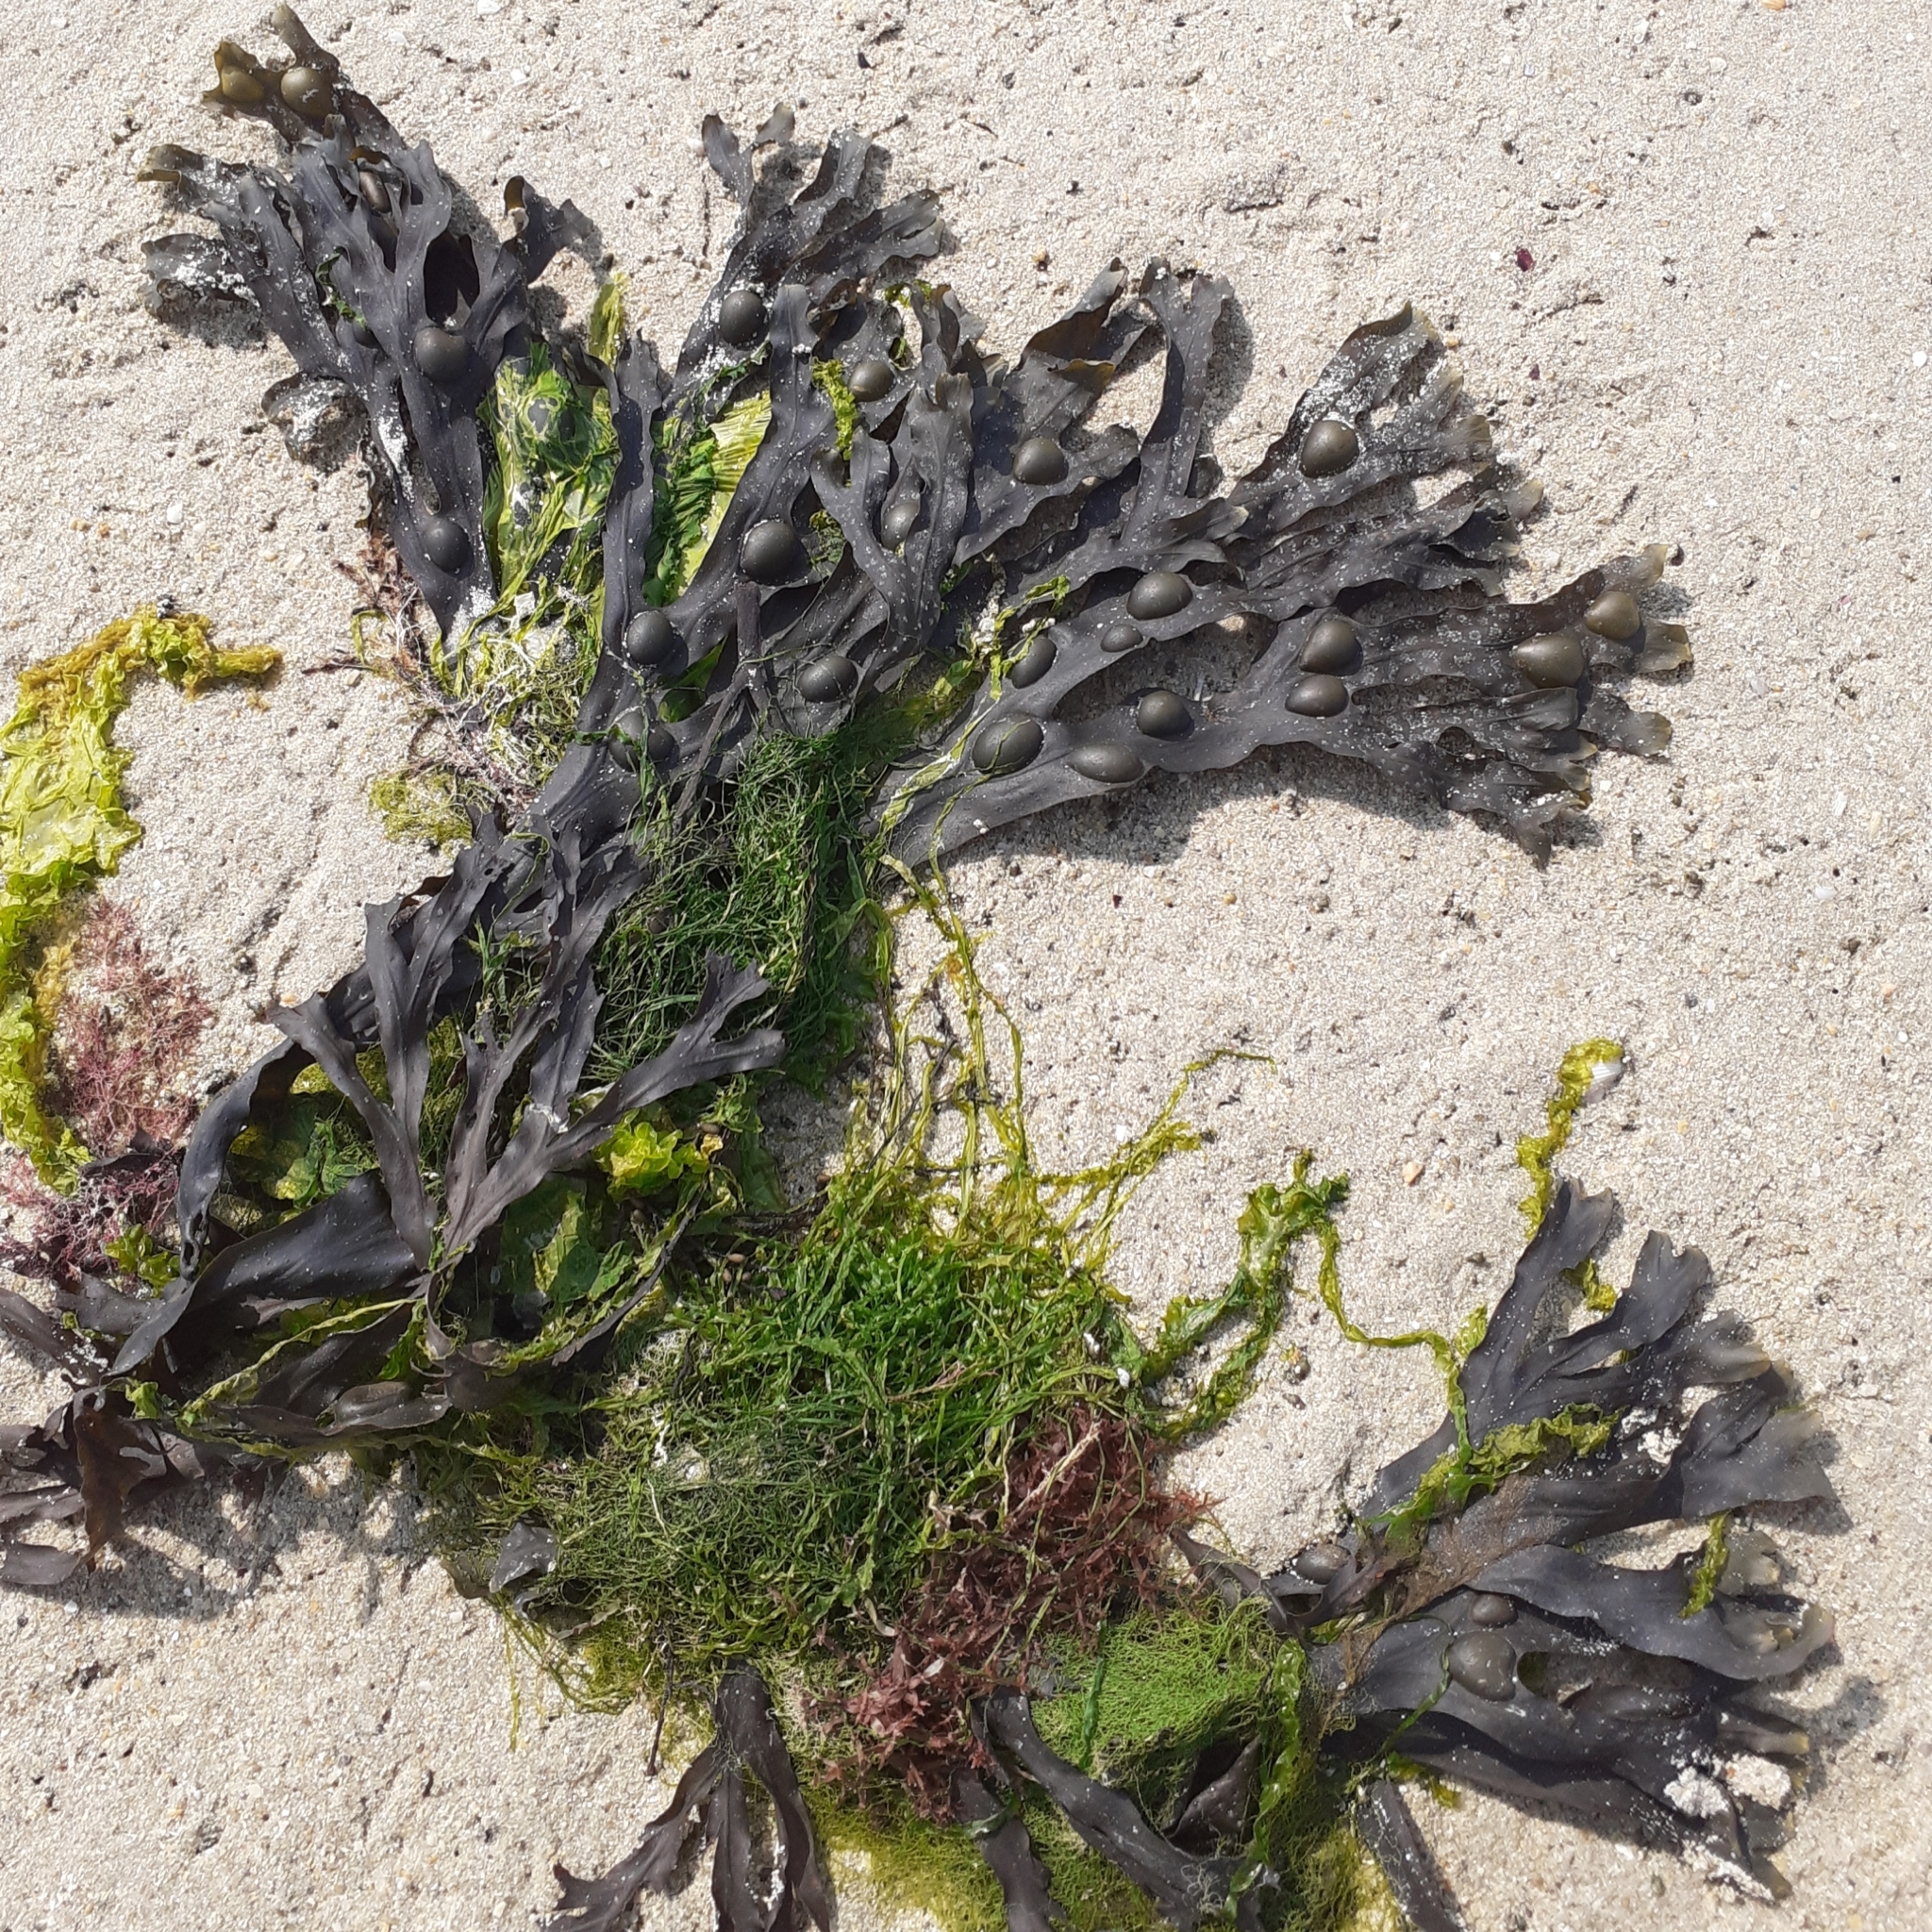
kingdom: Chromista
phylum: Ochrophyta
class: Phaeophyceae
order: Fucales
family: Fucaceae
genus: Fucus
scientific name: Fucus vesiculosus
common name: Bladder wrack
